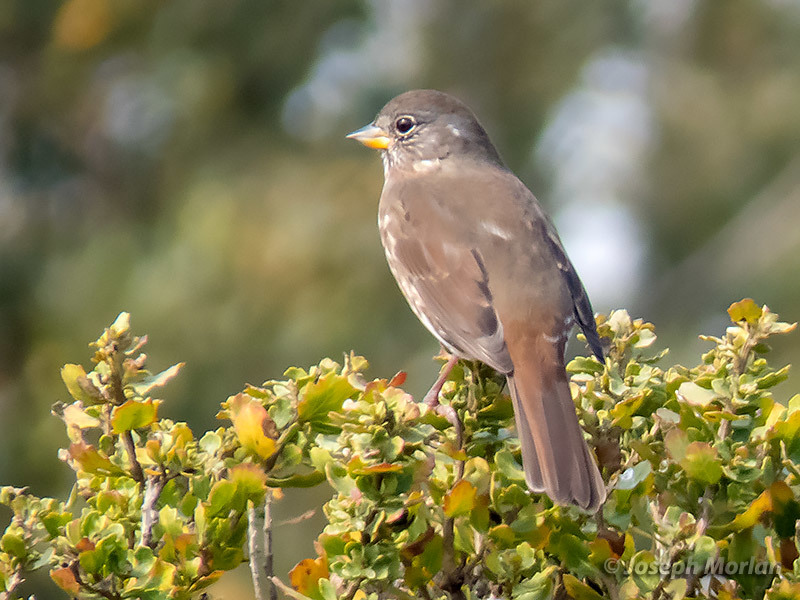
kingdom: Animalia
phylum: Chordata
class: Aves
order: Passeriformes
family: Passerellidae
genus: Passerella
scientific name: Passerella iliaca
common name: Fox sparrow
